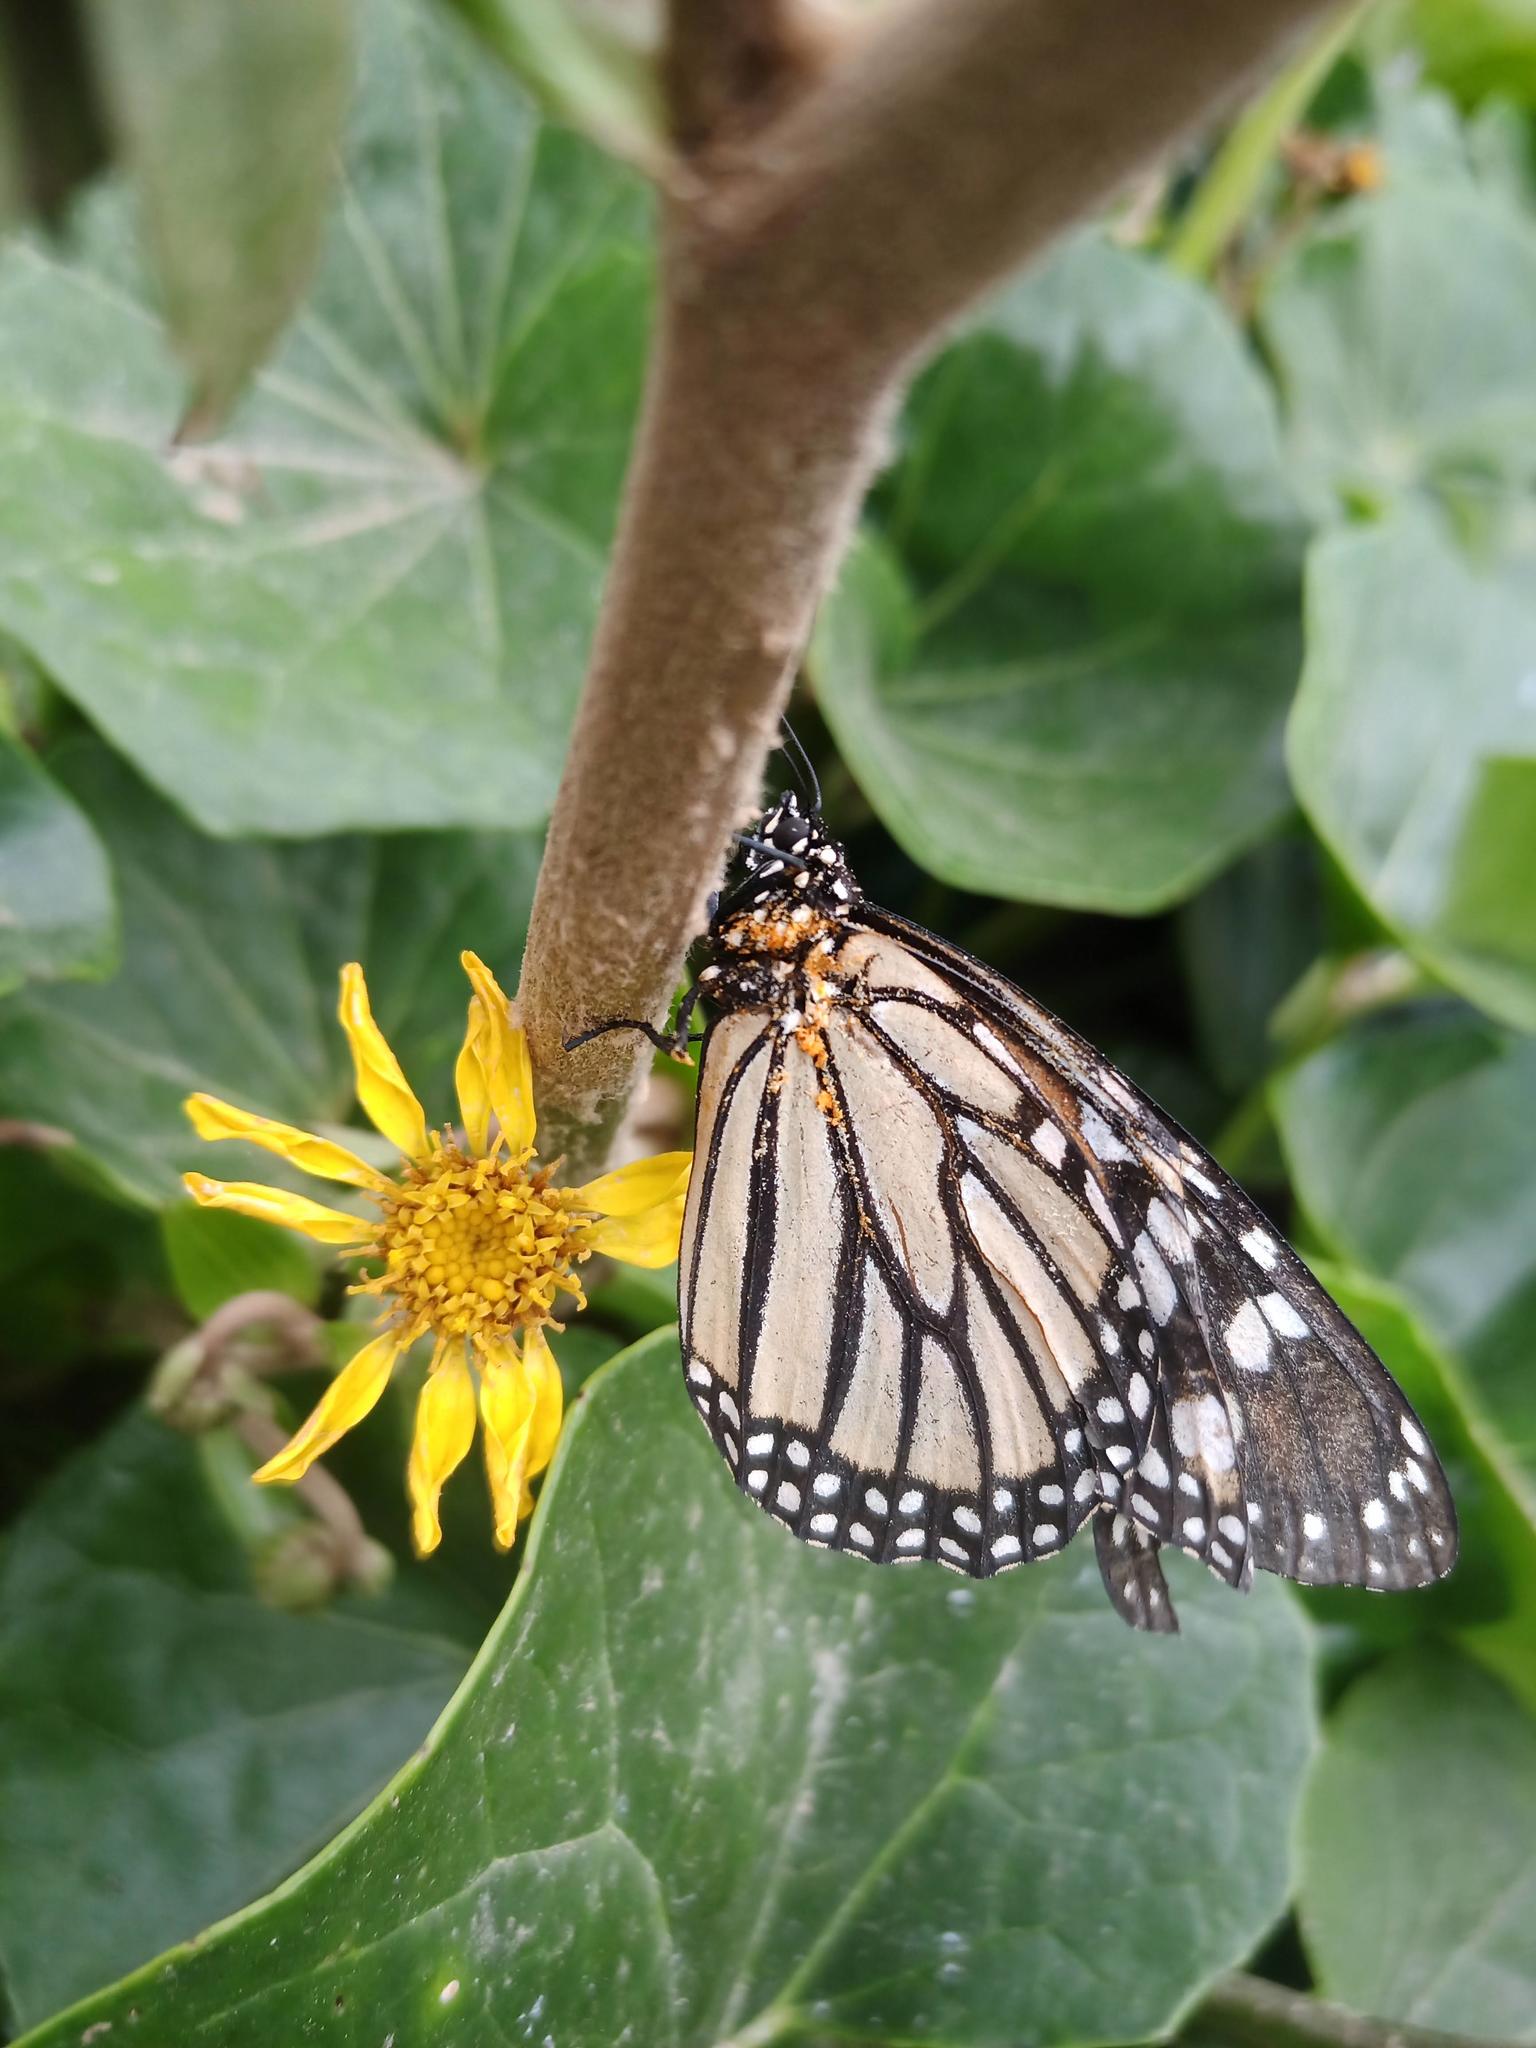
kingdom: Animalia
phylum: Arthropoda
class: Insecta
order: Lepidoptera
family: Nymphalidae
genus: Danaus
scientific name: Danaus plexippus
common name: Monarch
